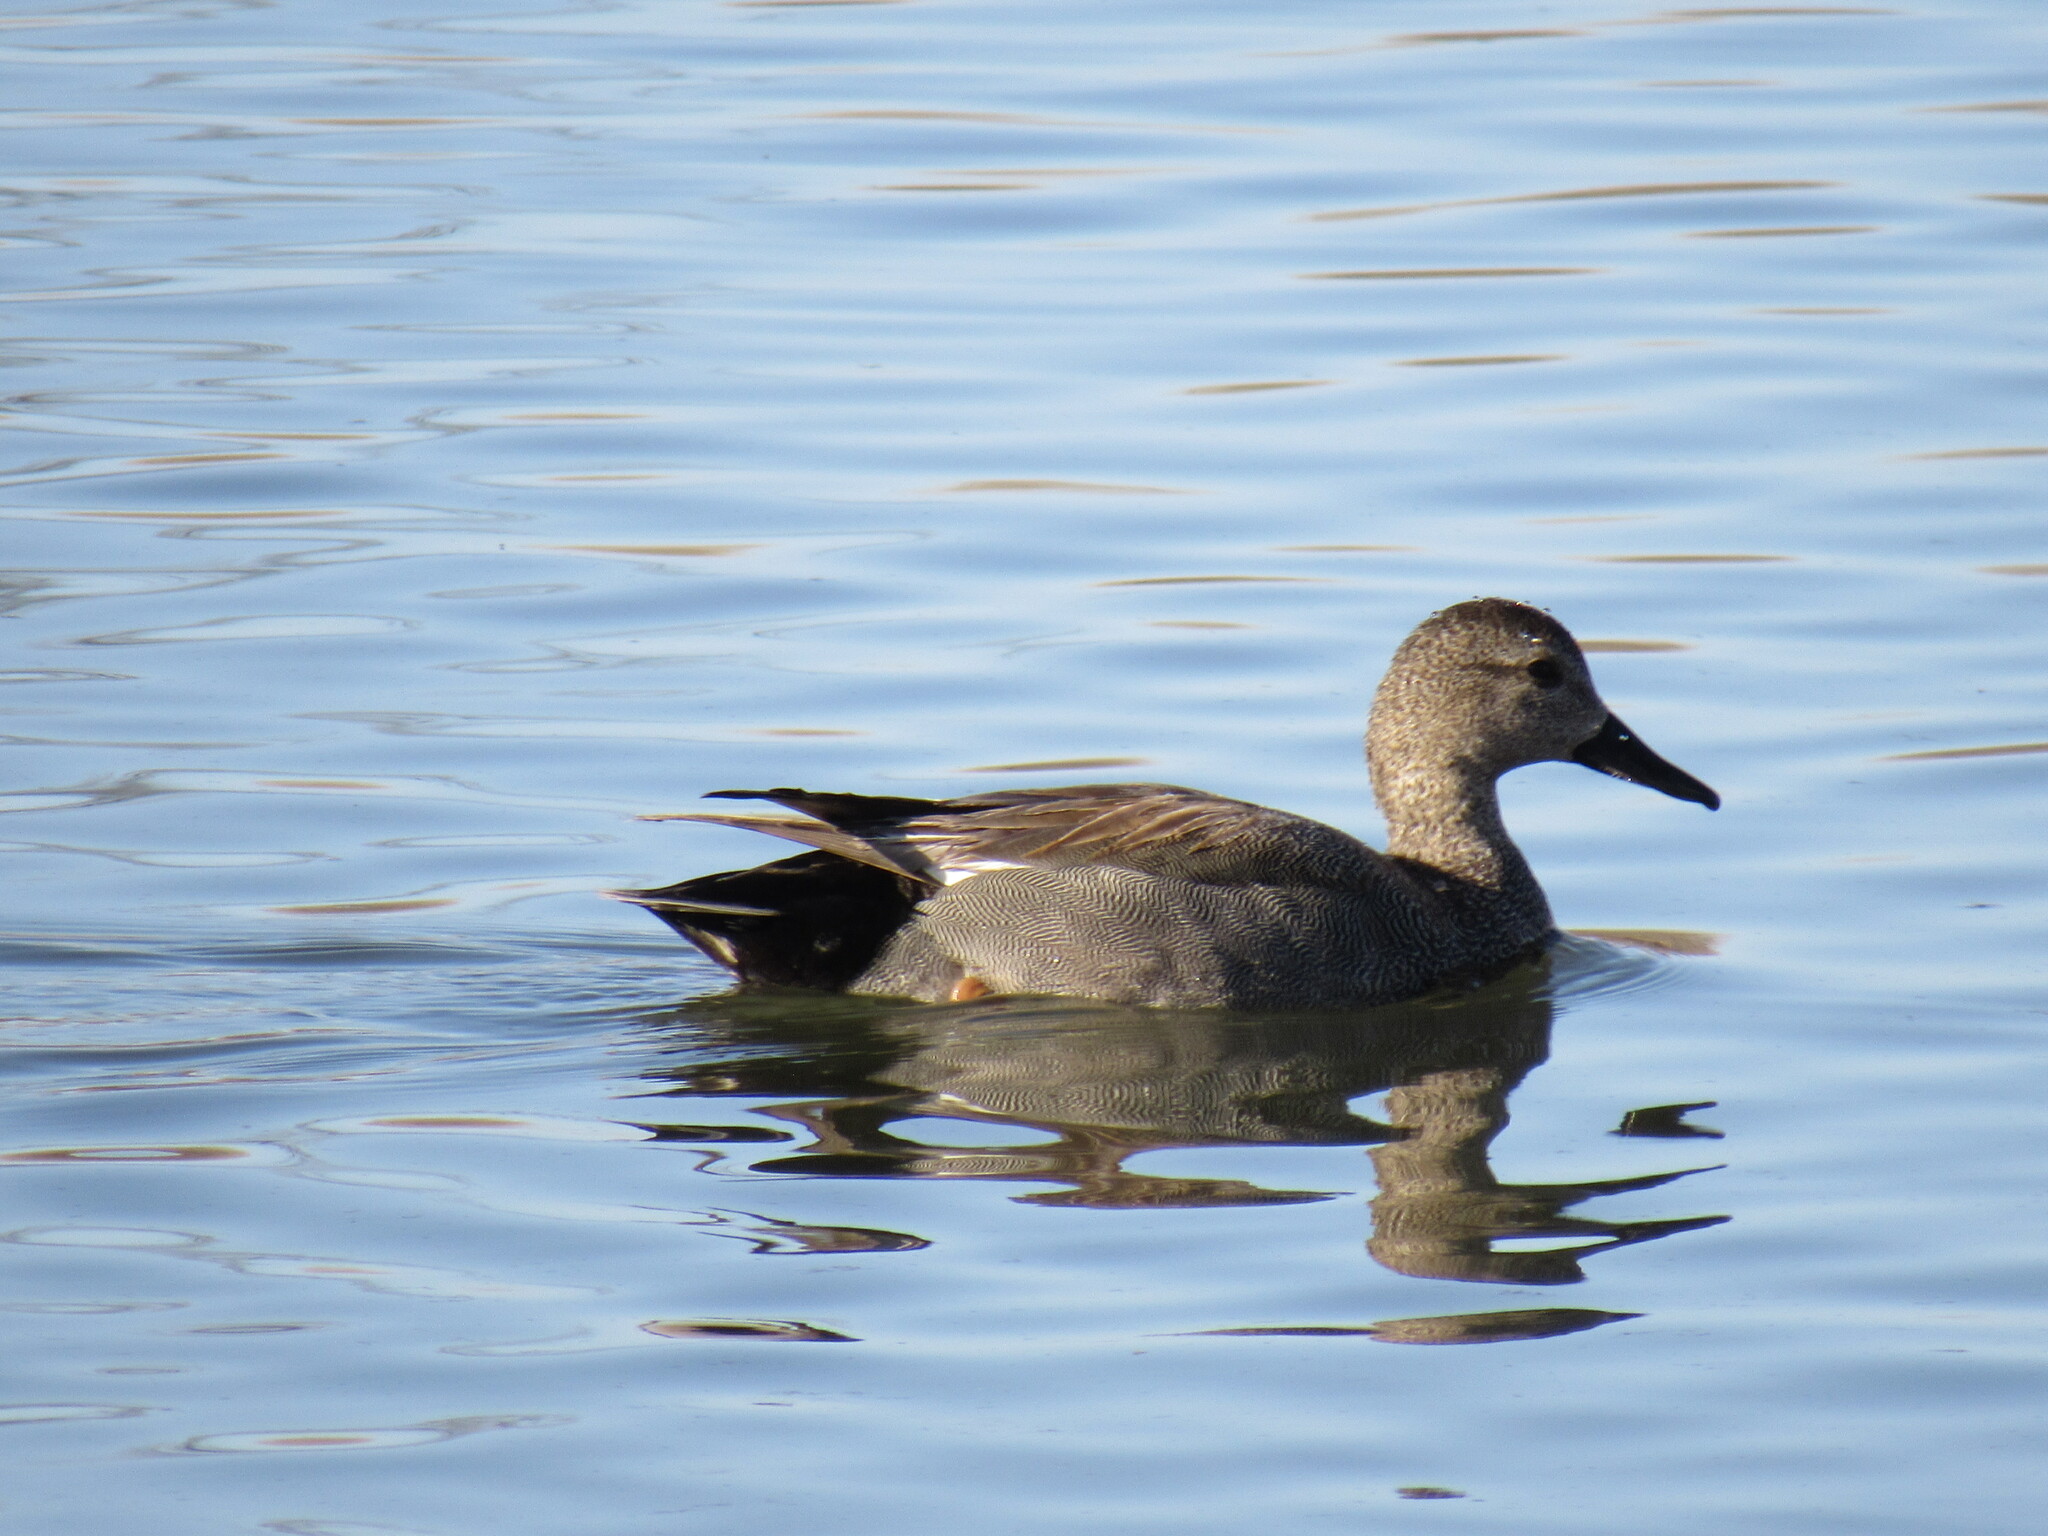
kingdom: Animalia
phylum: Chordata
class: Aves
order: Anseriformes
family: Anatidae
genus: Mareca
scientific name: Mareca strepera
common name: Gadwall
